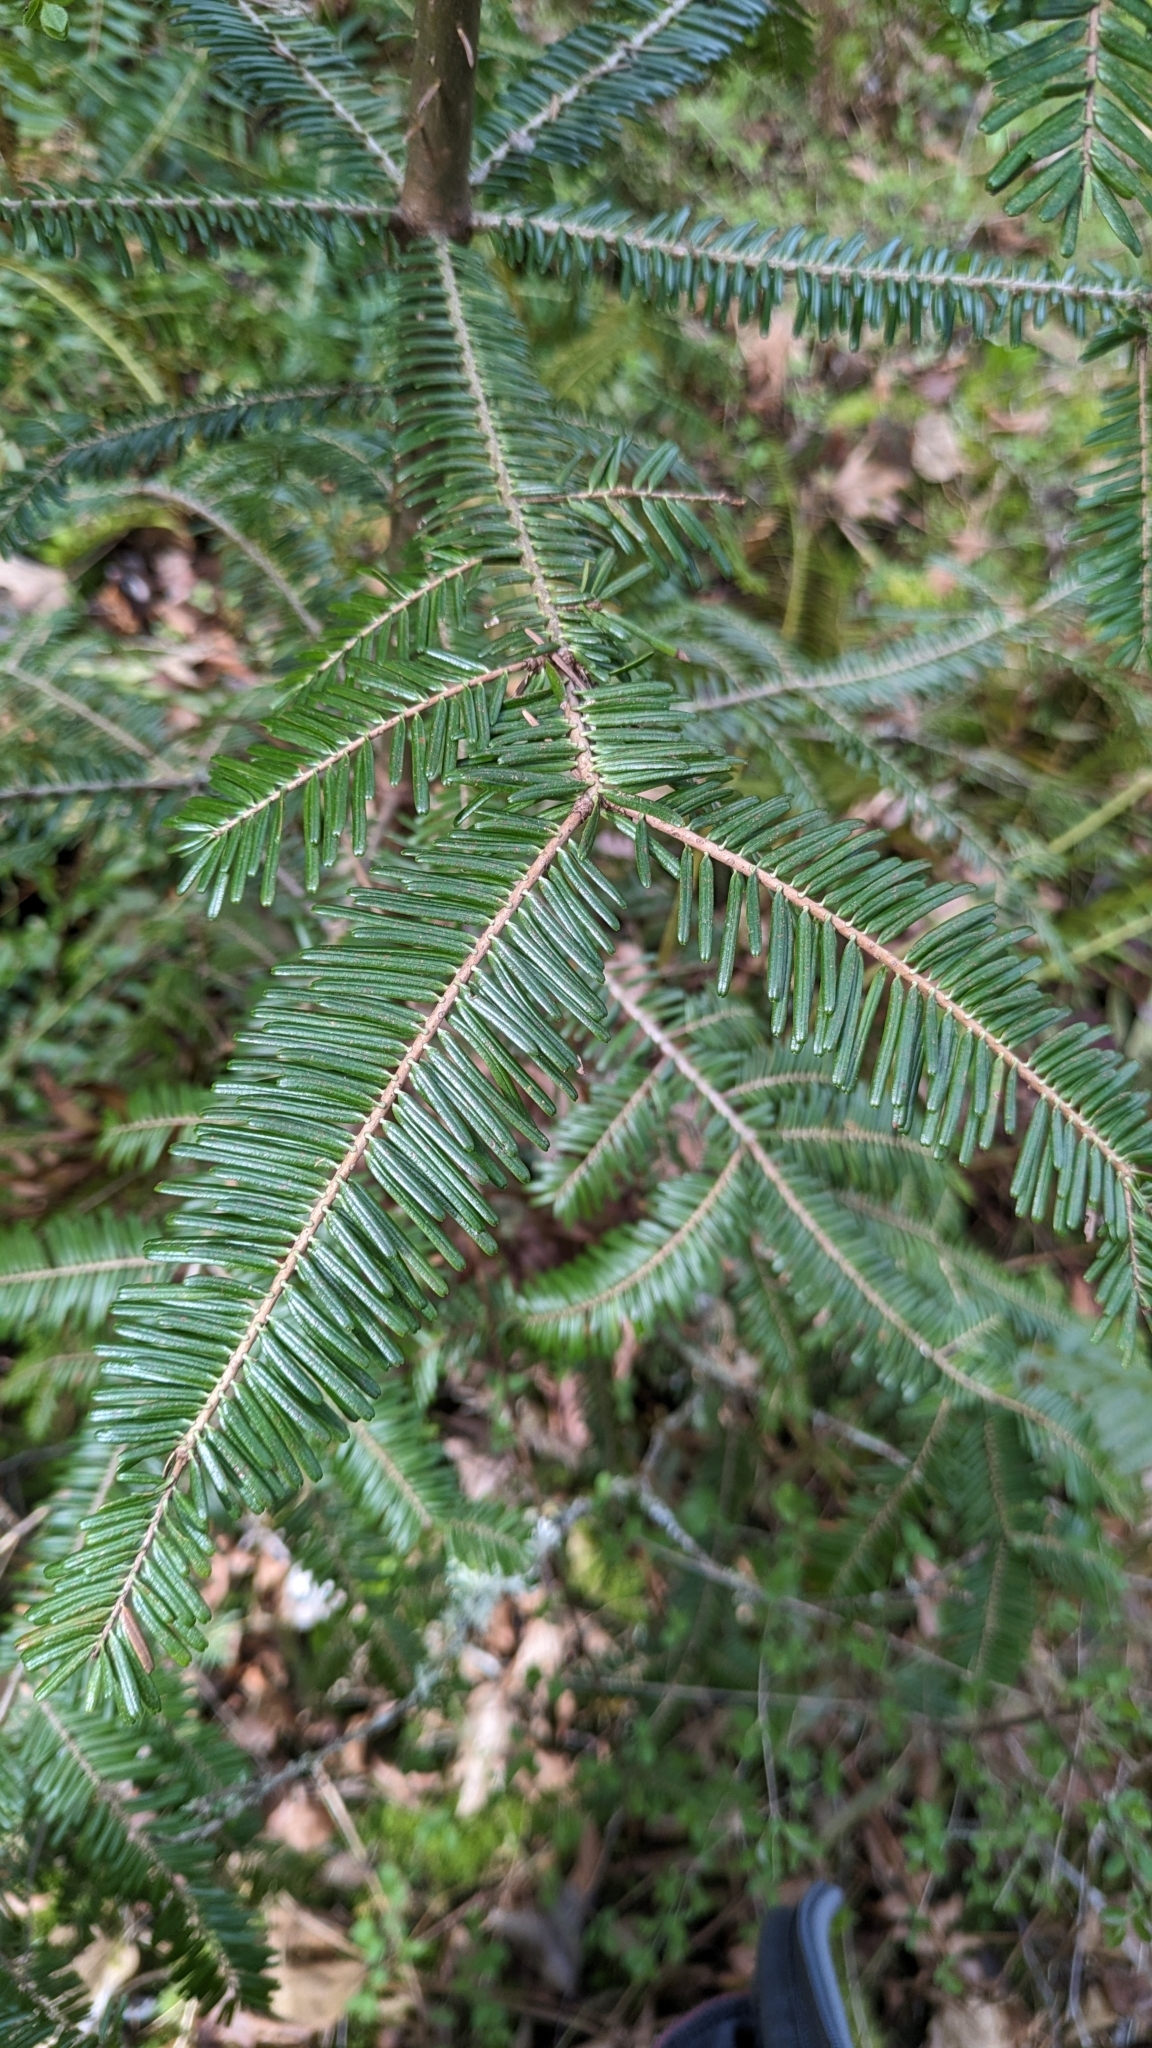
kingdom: Plantae
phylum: Tracheophyta
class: Pinopsida
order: Pinales
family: Pinaceae
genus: Abies
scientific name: Abies grandis
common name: Giant fir
